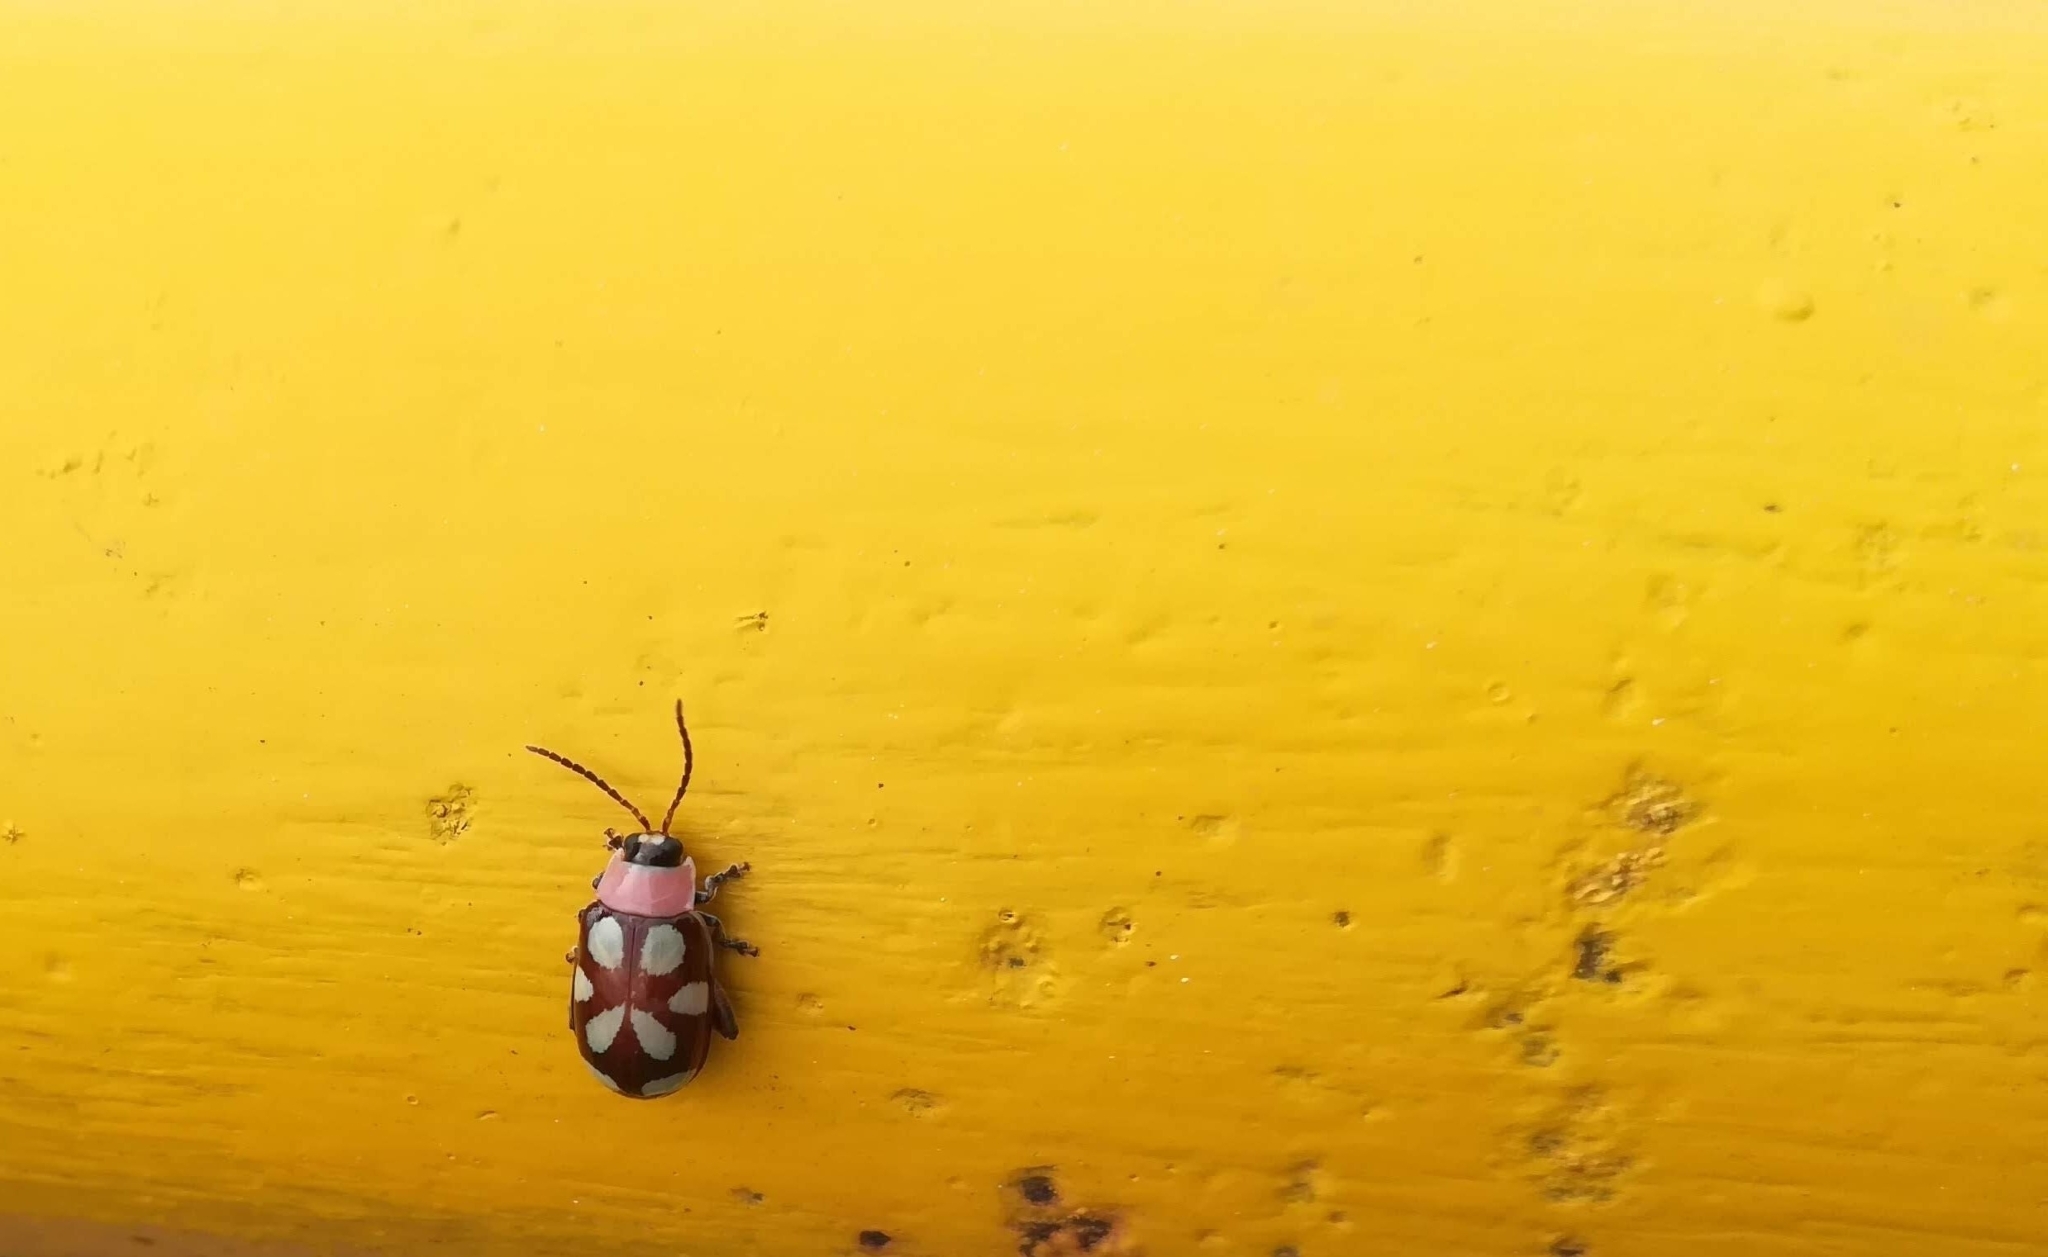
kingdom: Animalia
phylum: Arthropoda
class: Insecta
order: Coleoptera
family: Chrysomelidae
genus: Omophoita
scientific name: Omophoita cyanipennis
